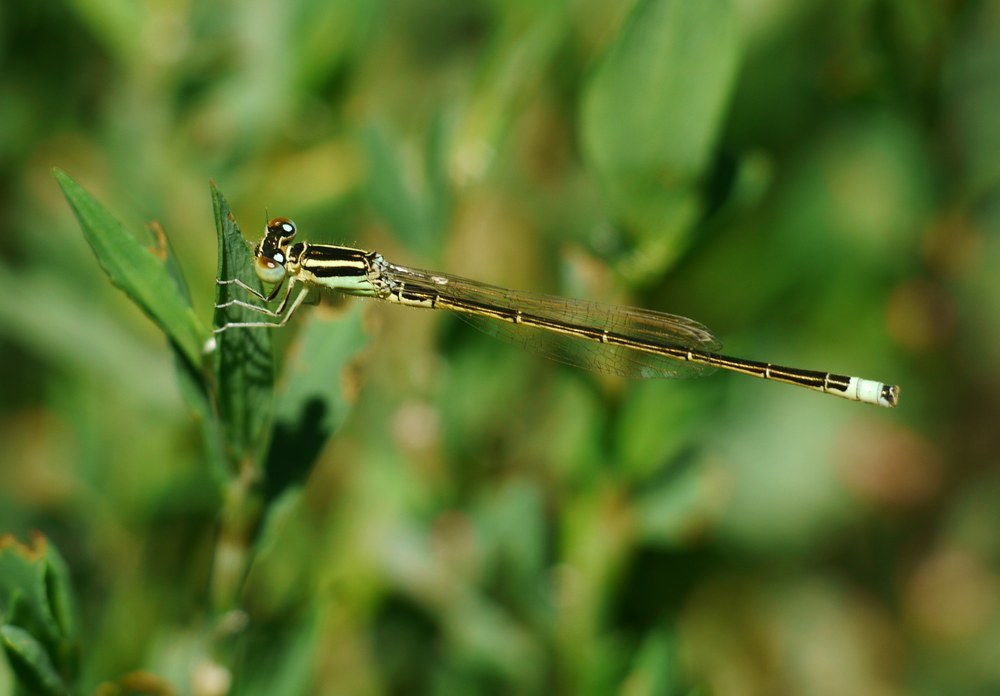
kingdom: Animalia
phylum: Arthropoda
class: Insecta
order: Odonata
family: Coenagrionidae
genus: Ischnura
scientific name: Ischnura pumilio
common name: Scarce blue-tailed damselfly
